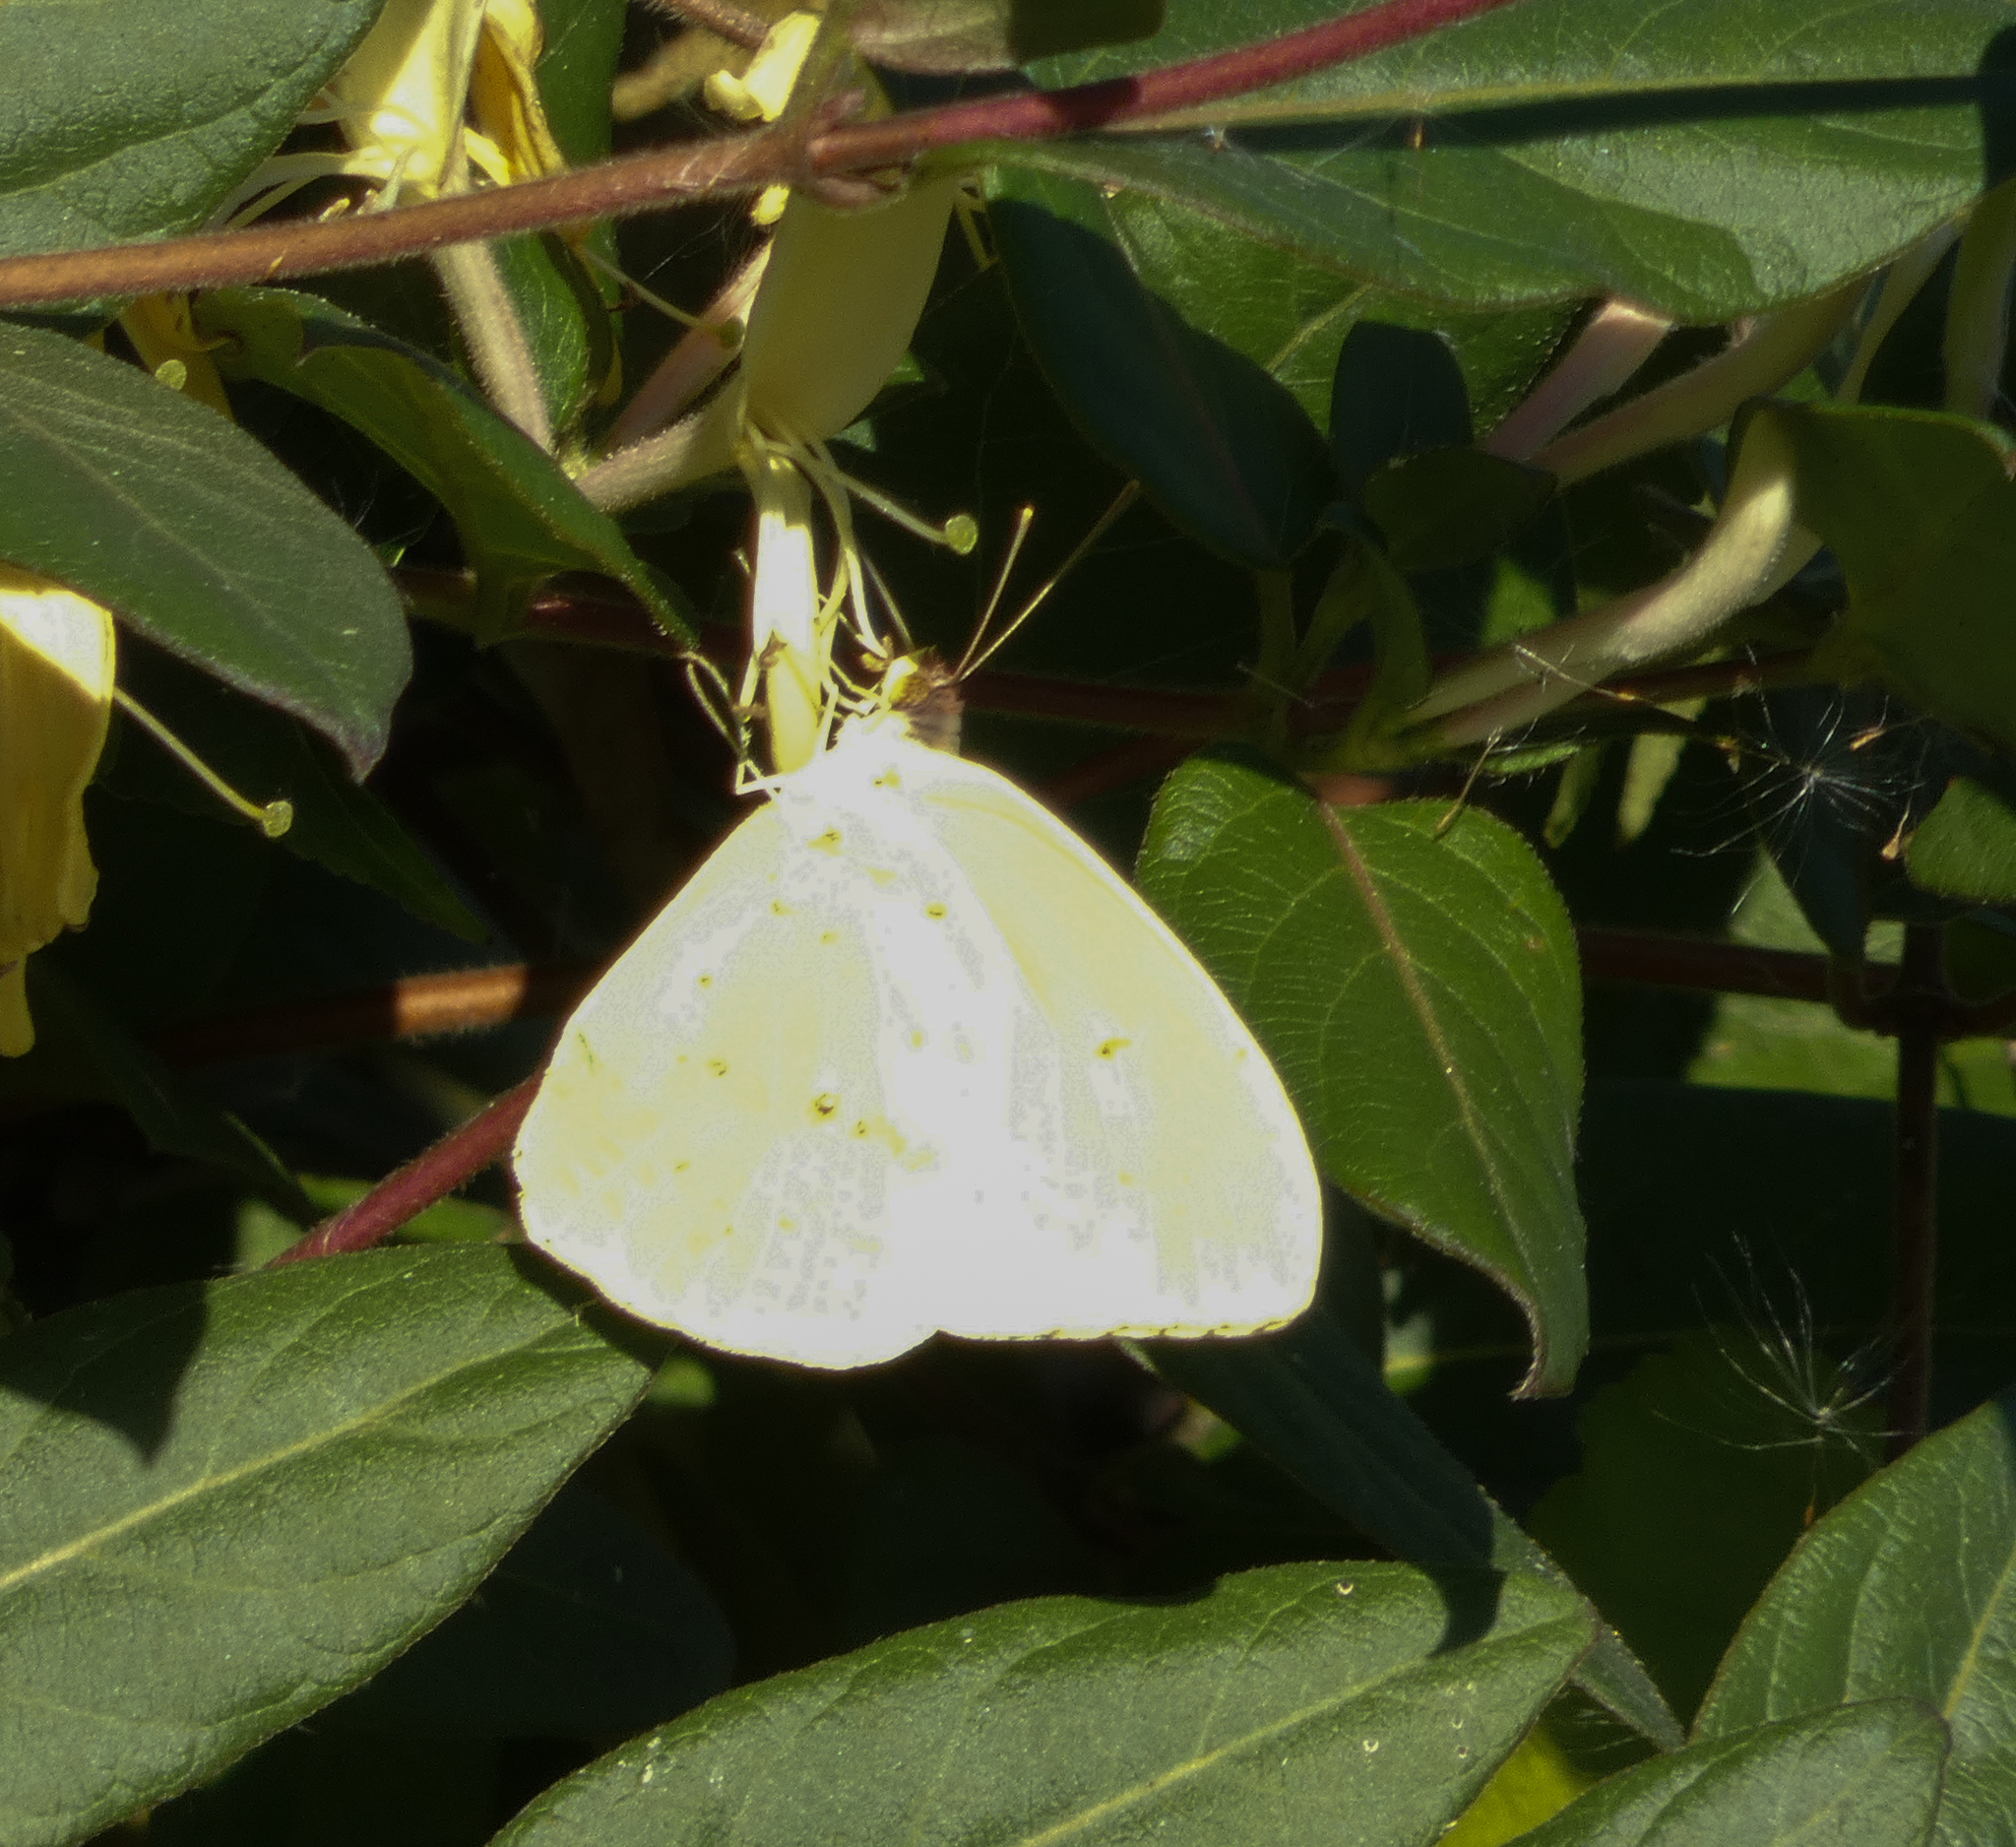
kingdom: Animalia
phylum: Arthropoda
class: Insecta
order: Lepidoptera
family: Pieridae
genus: Phoebis
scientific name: Phoebis sennae
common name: Cloudless sulphur
